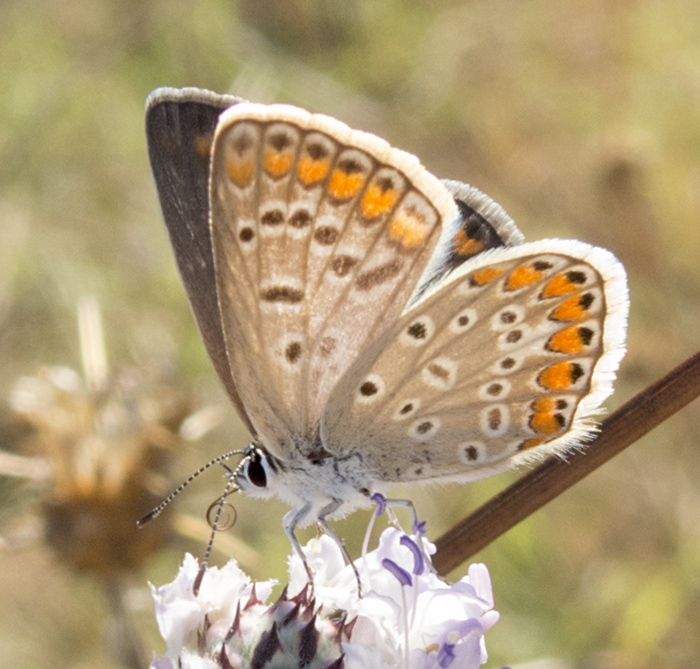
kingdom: Animalia
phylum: Arthropoda
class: Insecta
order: Lepidoptera
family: Lycaenidae
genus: Polyommatus
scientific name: Polyommatus icarus
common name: Common blue
